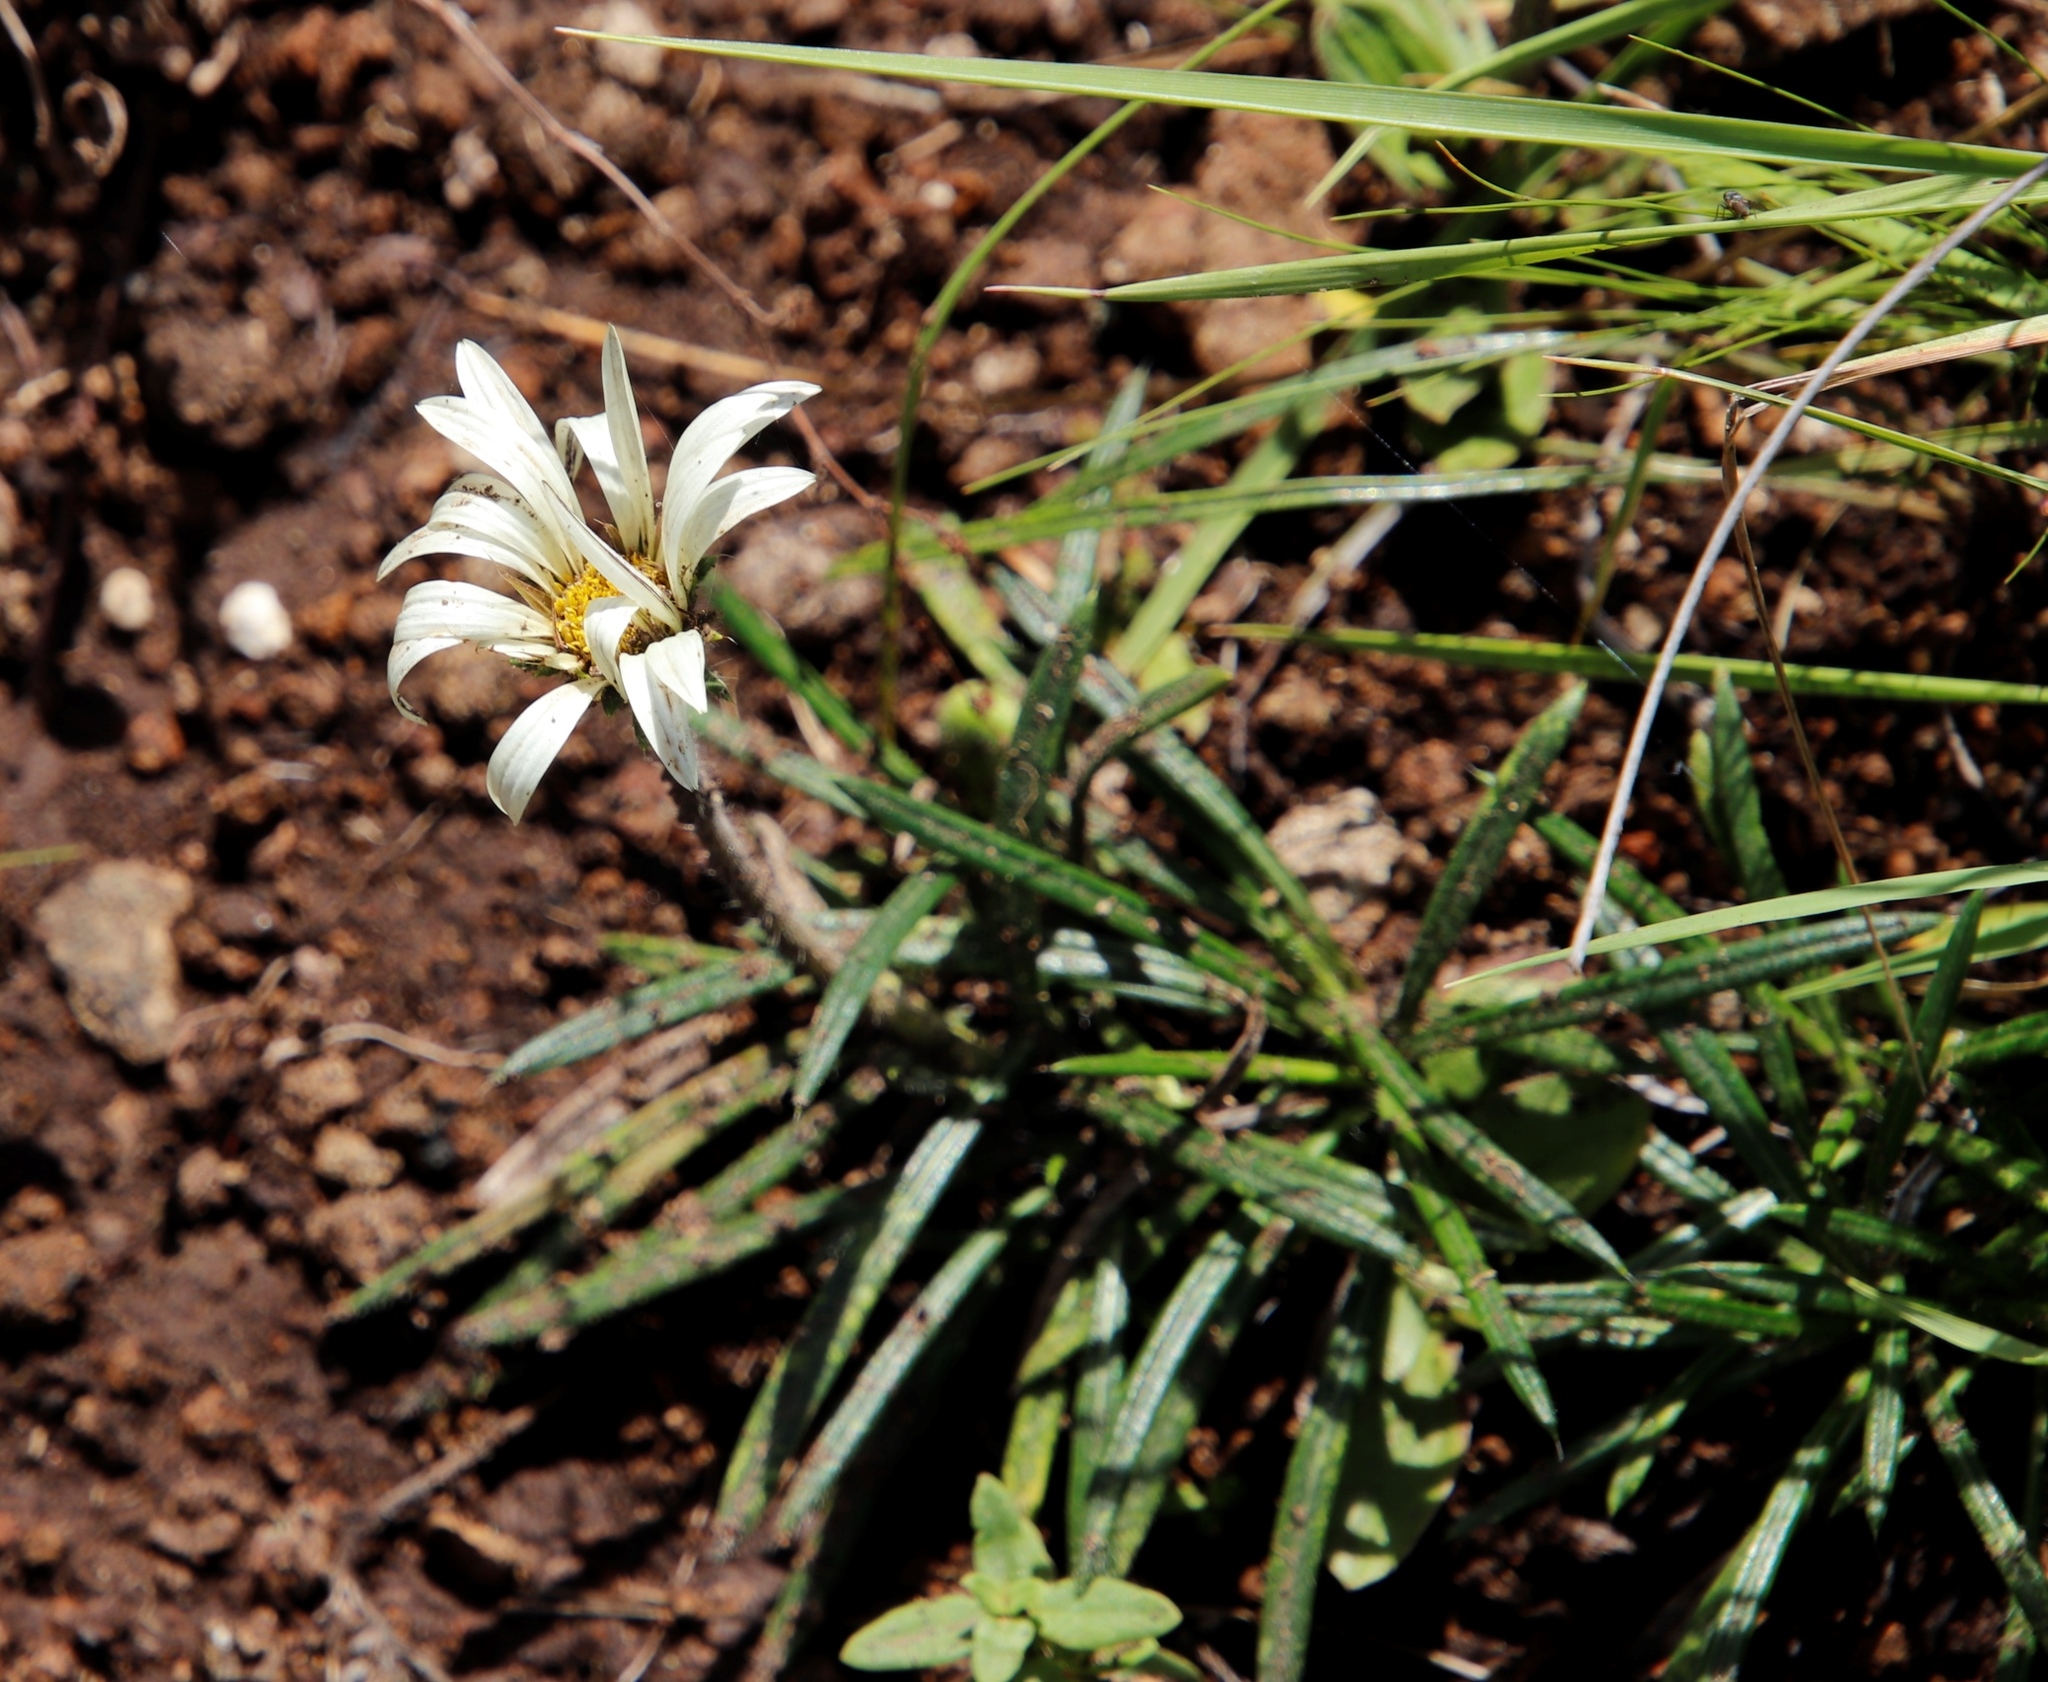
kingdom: Plantae
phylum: Tracheophyta
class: Magnoliopsida
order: Asterales
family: Asteraceae
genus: Gazania
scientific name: Gazania krebsiana
